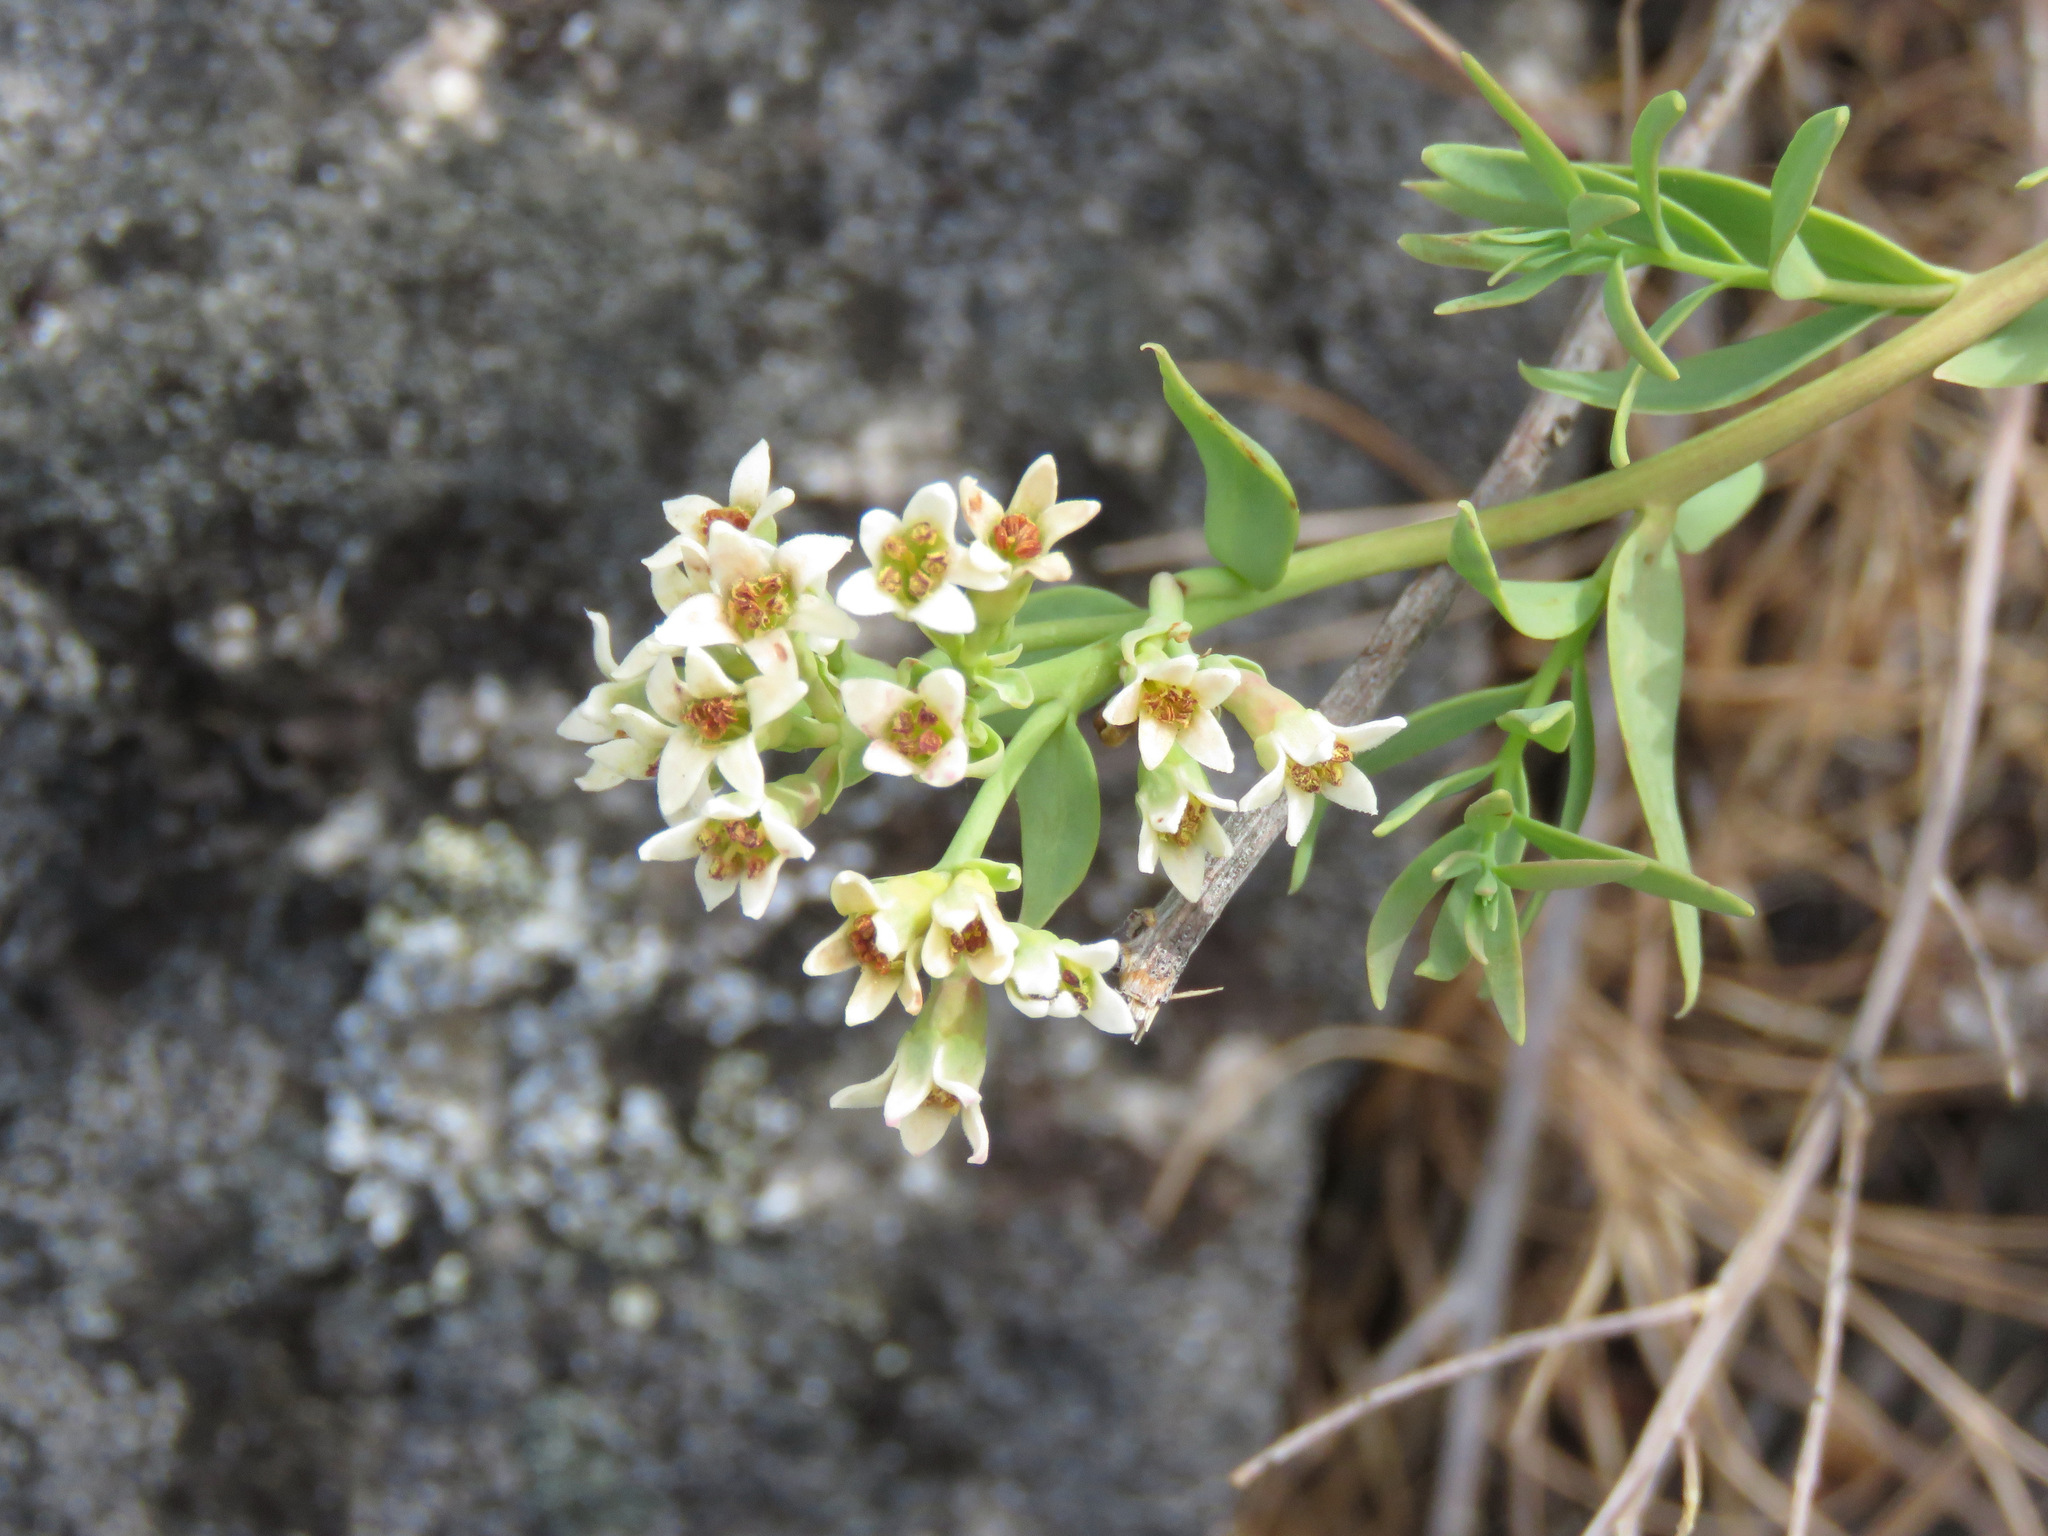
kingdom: Plantae
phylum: Tracheophyta
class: Magnoliopsida
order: Santalales
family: Comandraceae
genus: Comandra
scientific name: Comandra umbellata
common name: Bastard toadflax
